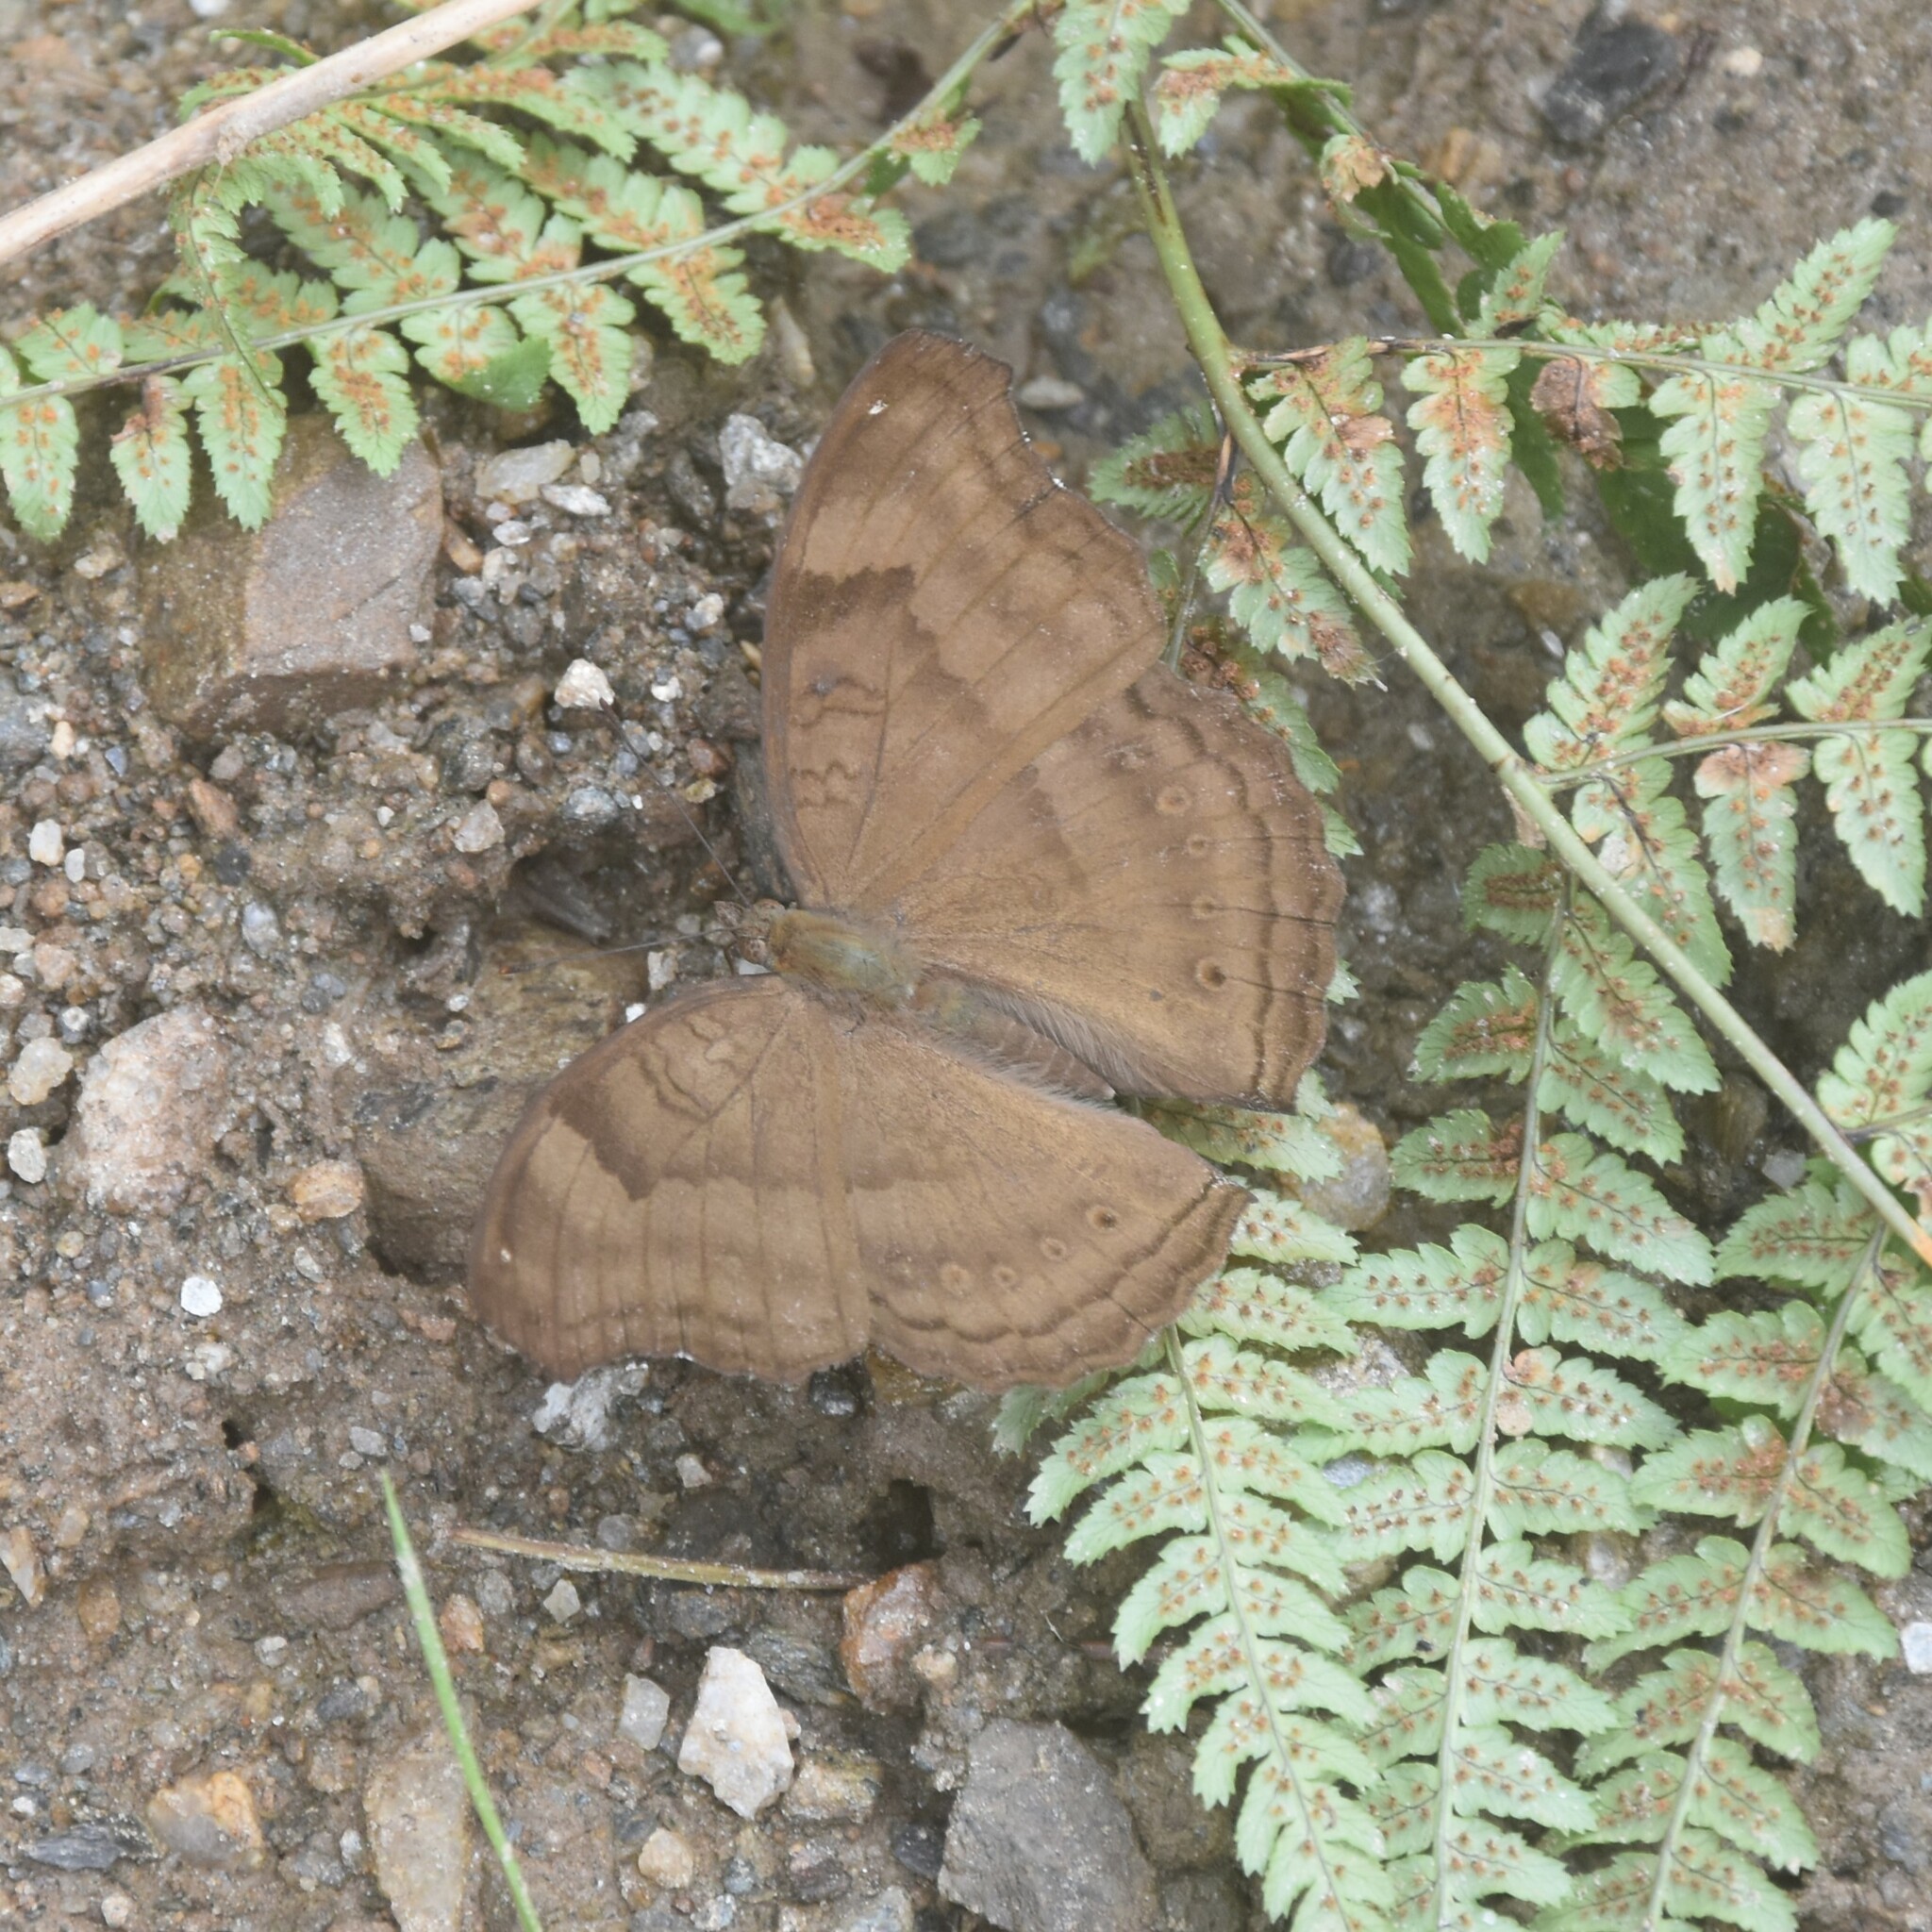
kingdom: Animalia
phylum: Arthropoda
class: Insecta
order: Lepidoptera
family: Nymphalidae
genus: Junonia
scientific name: Junonia iphita
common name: Chocolate pansy
